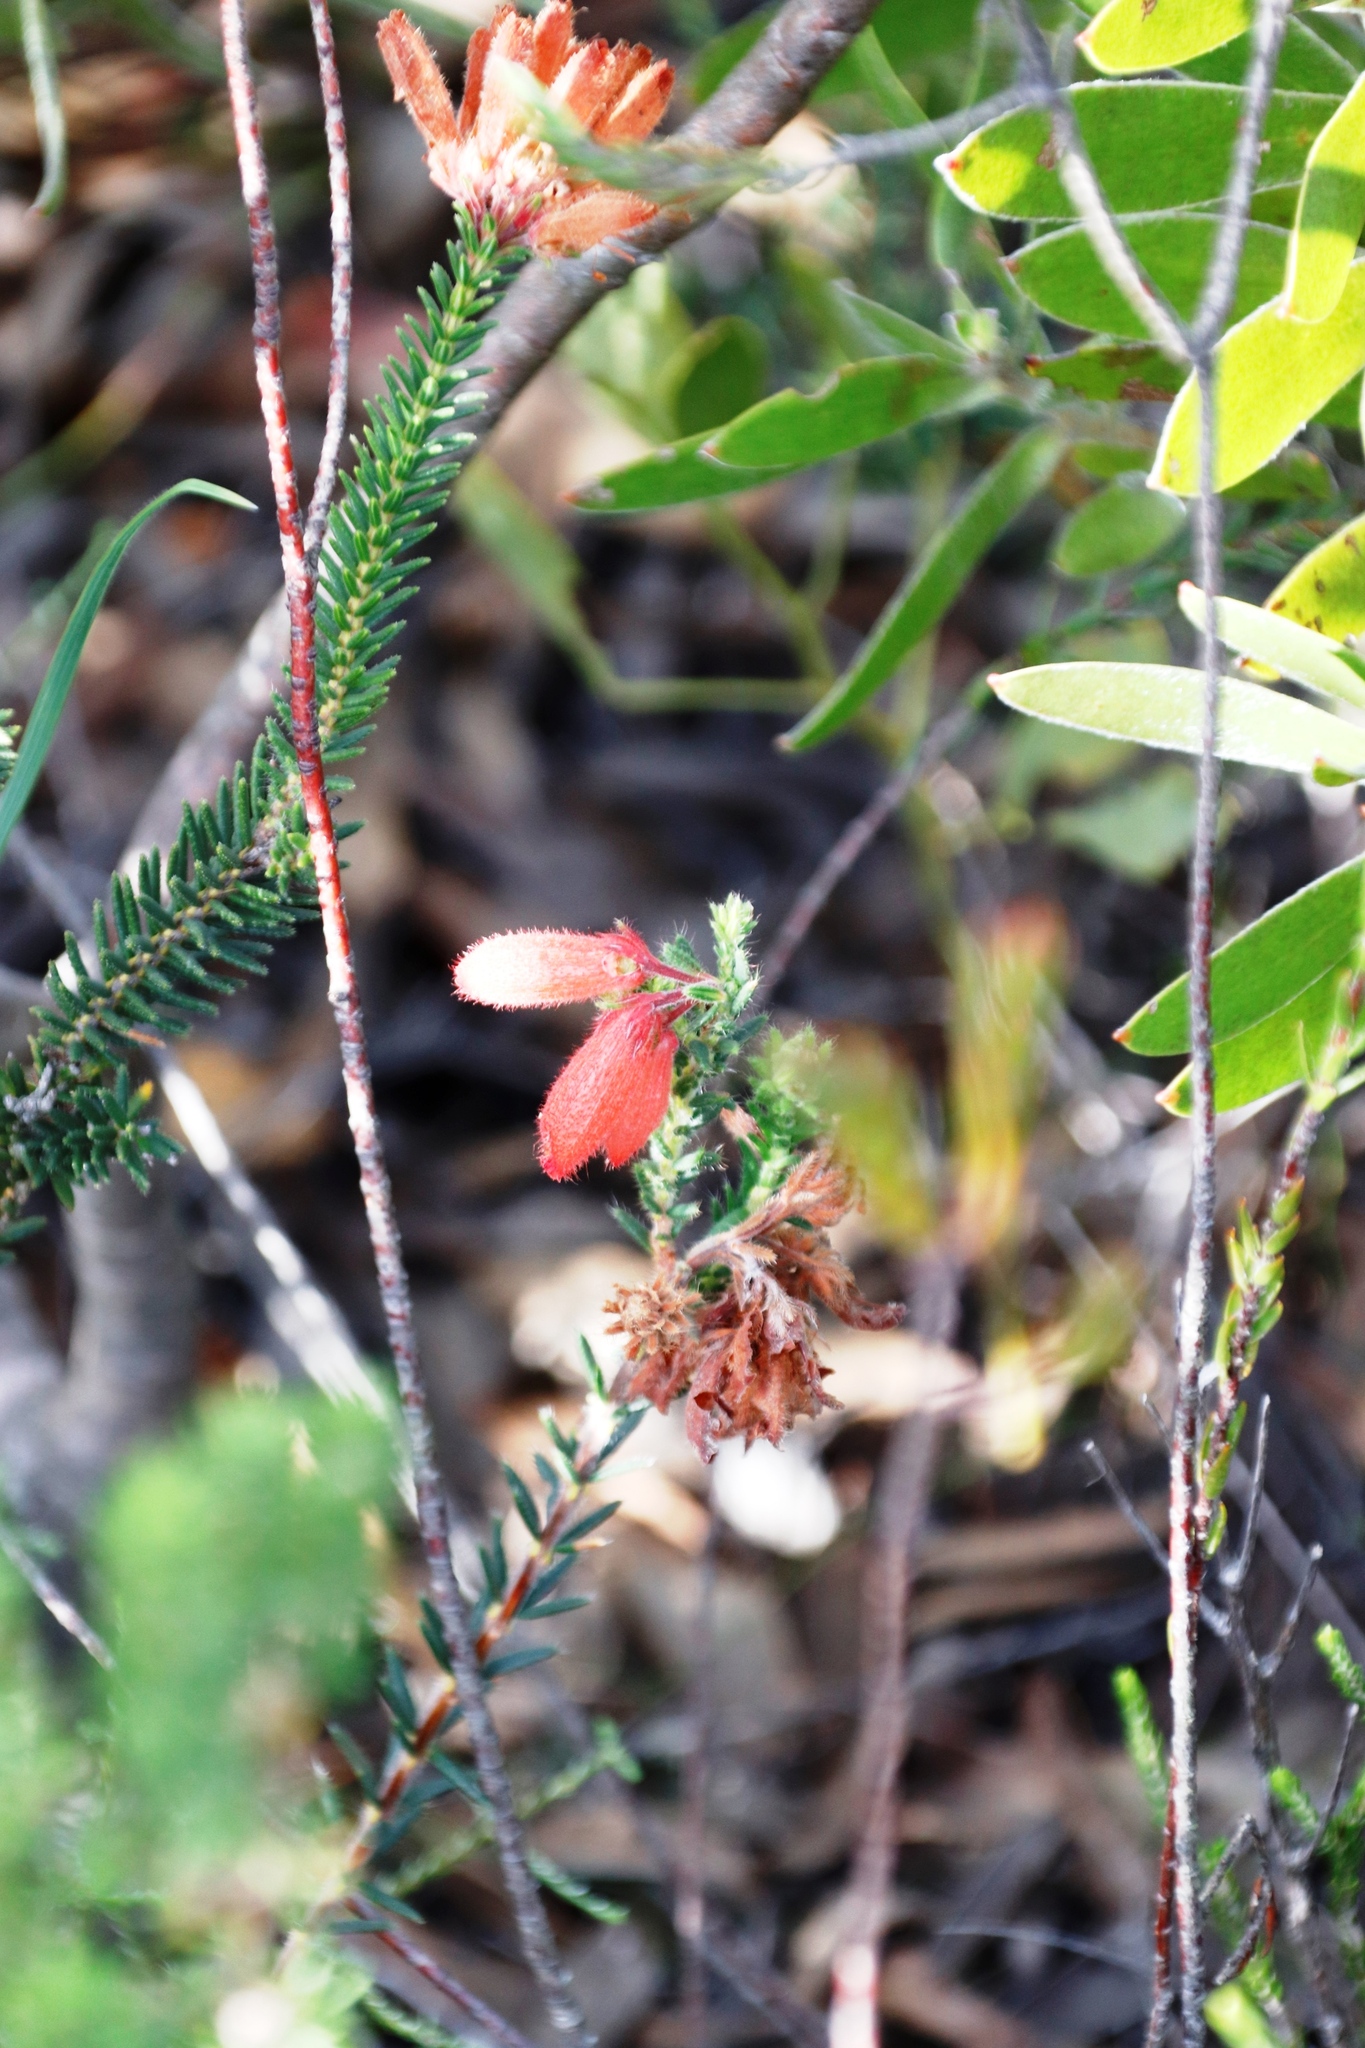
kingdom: Plantae
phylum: Tracheophyta
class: Magnoliopsida
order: Ericales
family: Ericaceae
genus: Erica
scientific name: Erica cerinthoides
